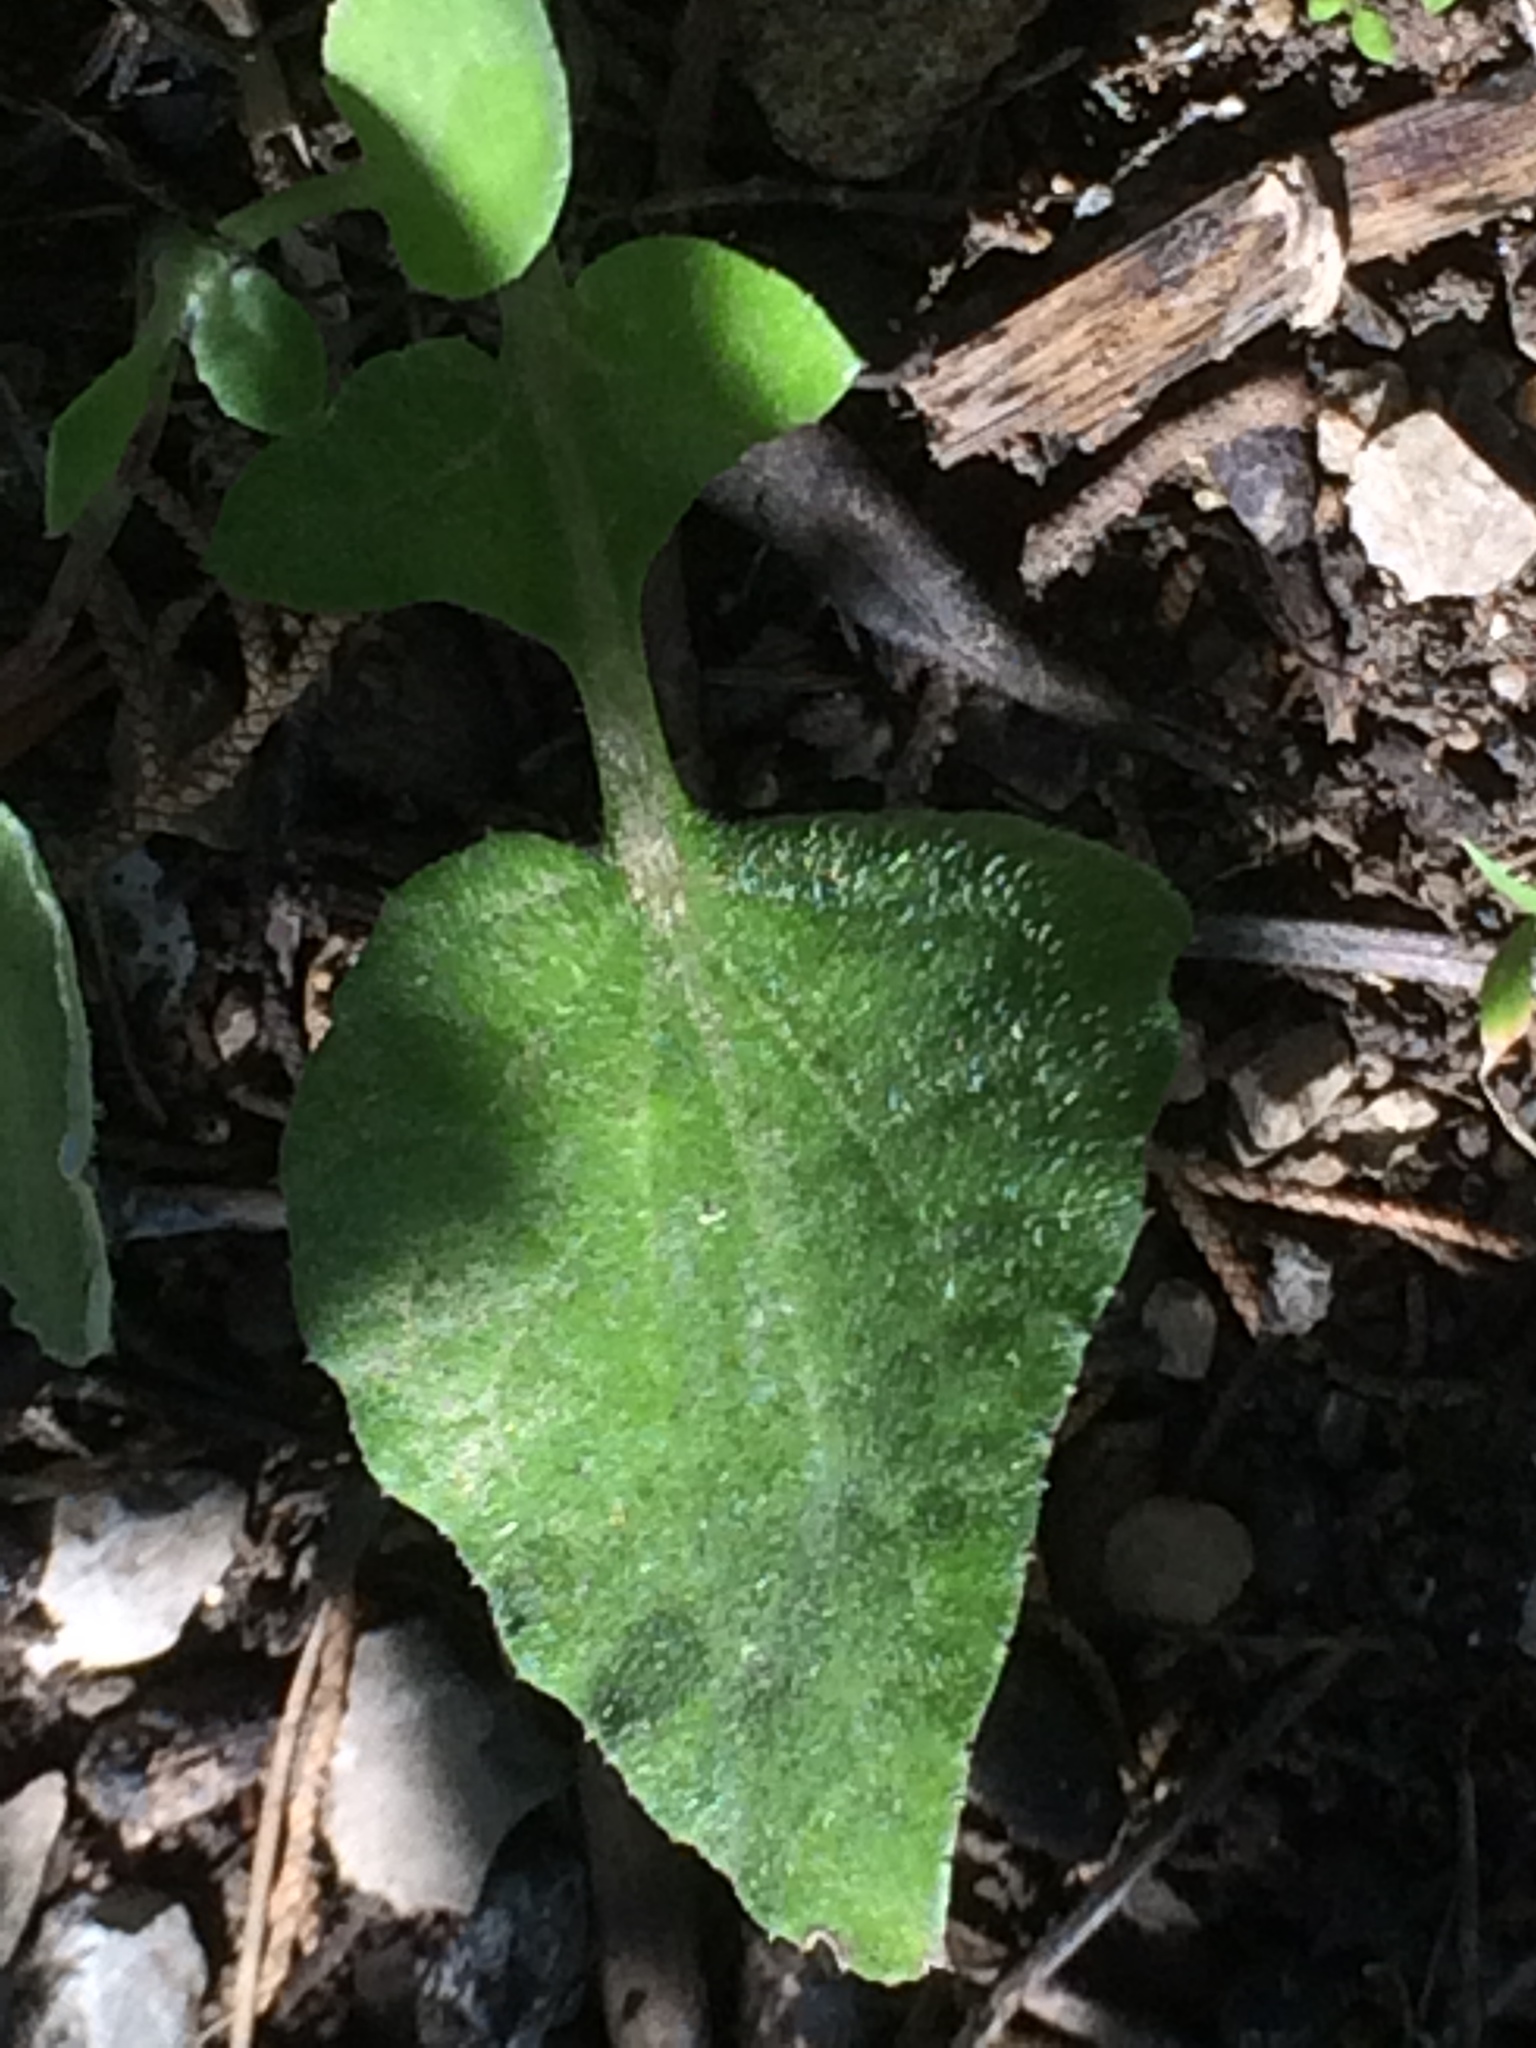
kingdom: Plantae
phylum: Tracheophyta
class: Magnoliopsida
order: Asterales
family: Asteraceae
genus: Arctotheca
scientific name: Arctotheca calendula
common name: Capeweed
